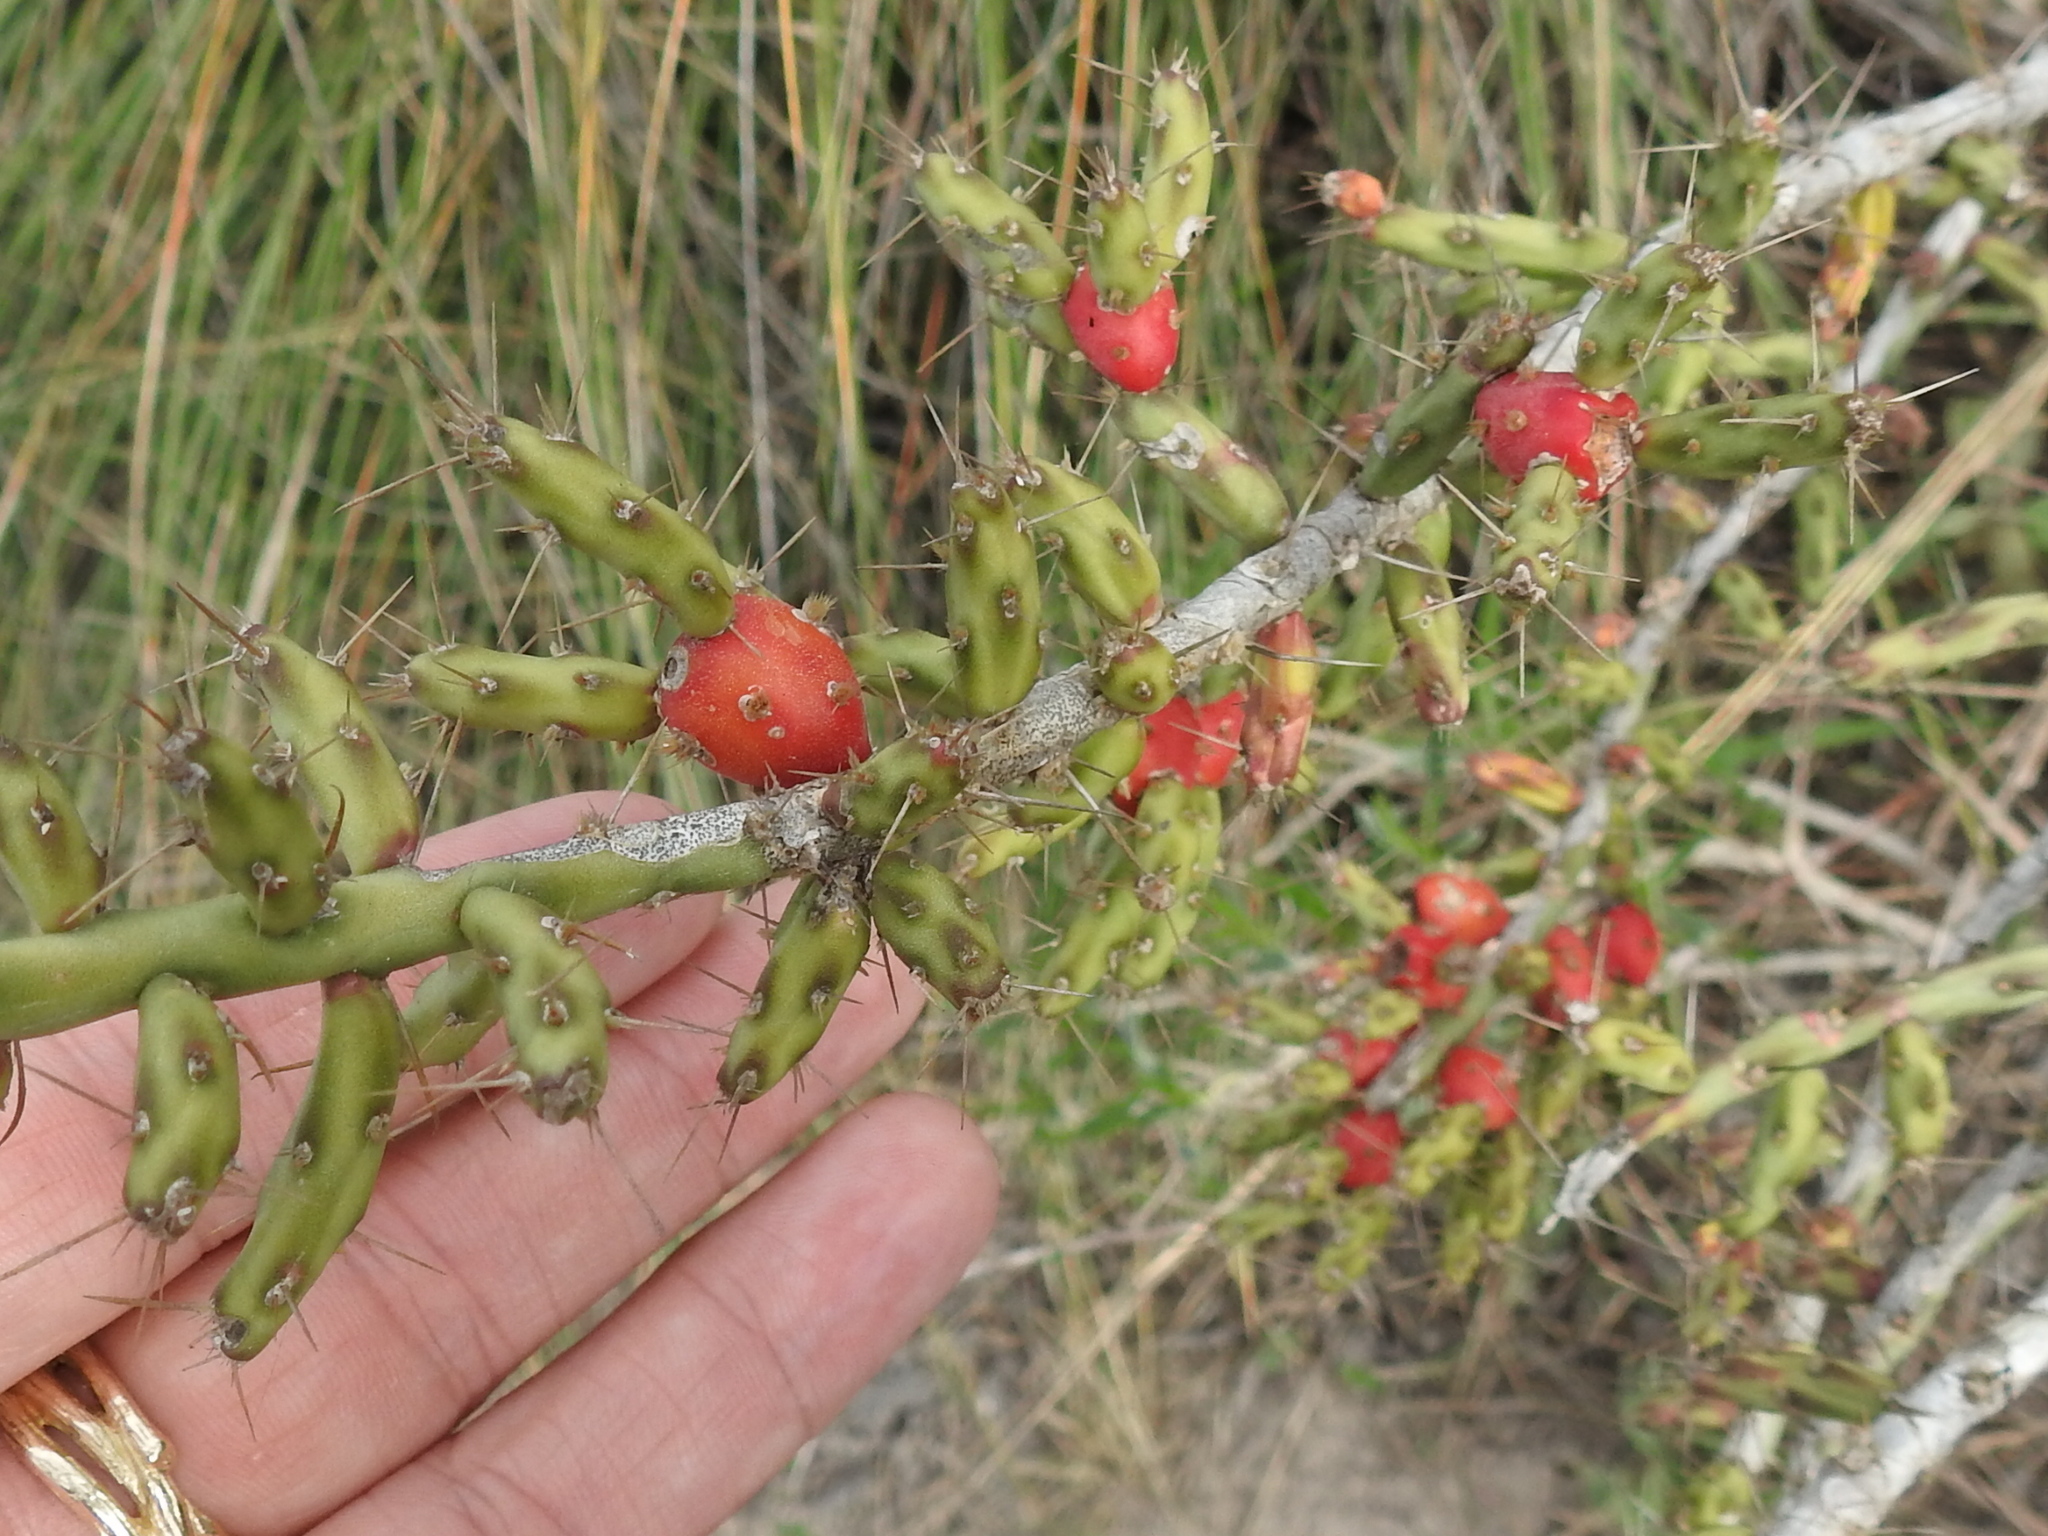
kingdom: Plantae
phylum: Tracheophyta
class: Magnoliopsida
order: Caryophyllales
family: Cactaceae
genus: Cylindropuntia
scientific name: Cylindropuntia leptocaulis
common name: Christmas cactus
